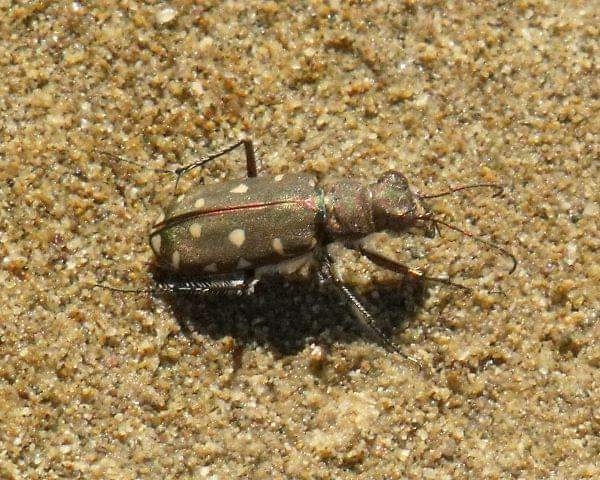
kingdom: Animalia
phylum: Arthropoda
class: Insecta
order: Coleoptera
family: Carabidae
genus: Cicindela
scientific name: Cicindela littoralis
